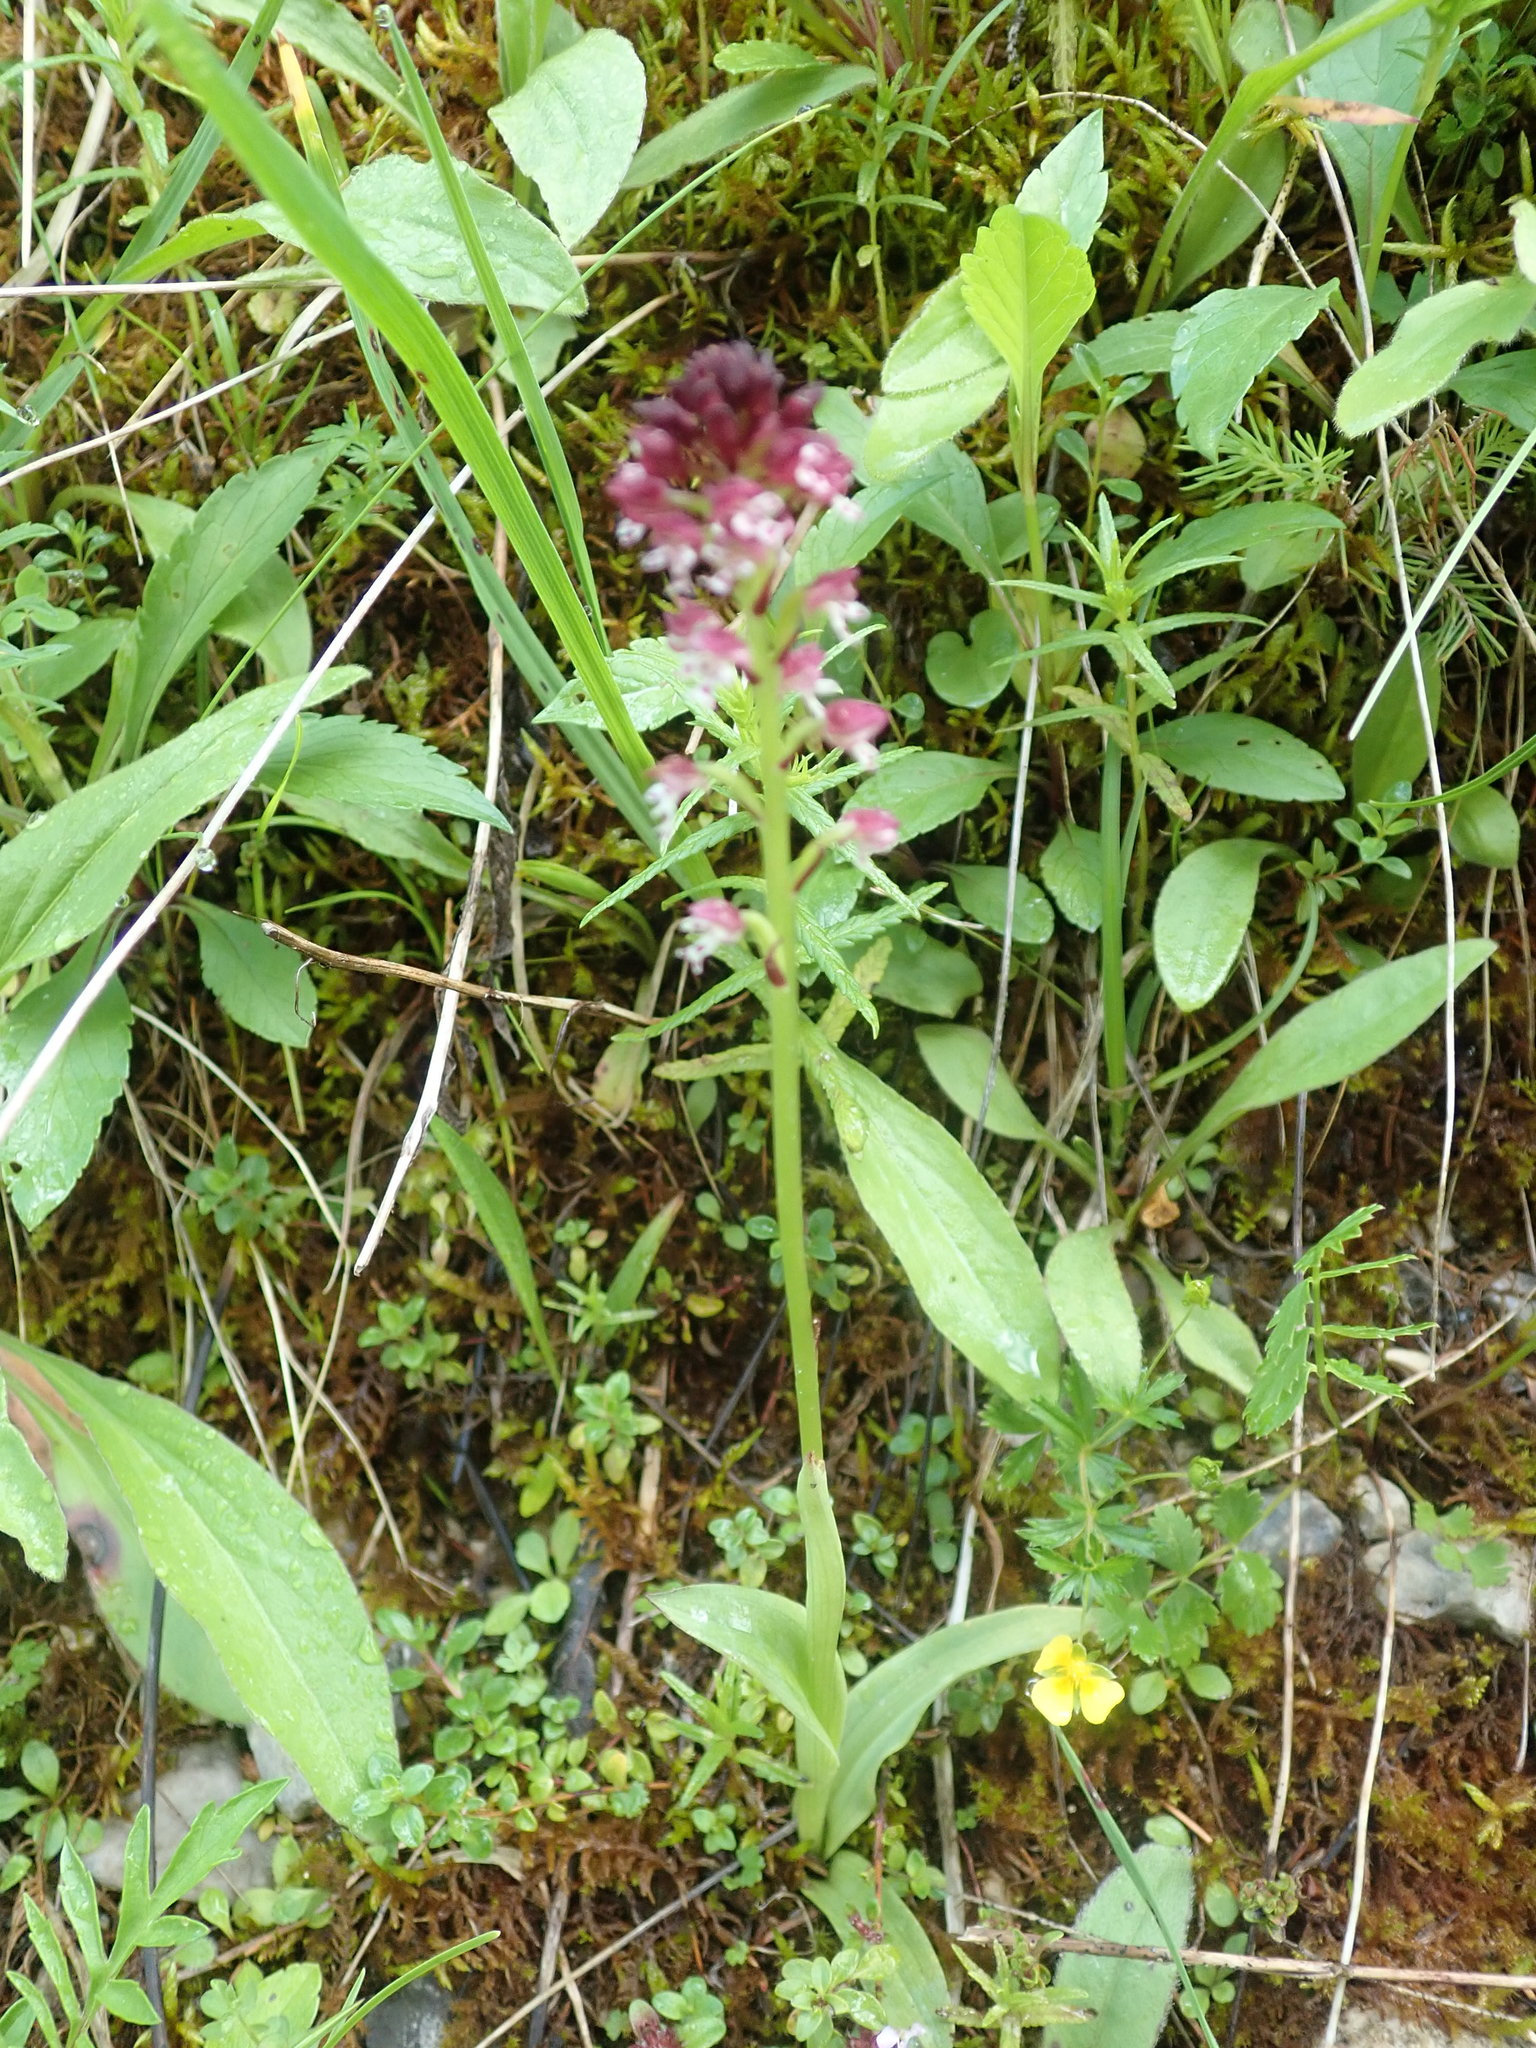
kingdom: Plantae
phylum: Tracheophyta
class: Liliopsida
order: Asparagales
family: Orchidaceae
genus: Neotinea
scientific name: Neotinea ustulata
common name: Burnt orchid
